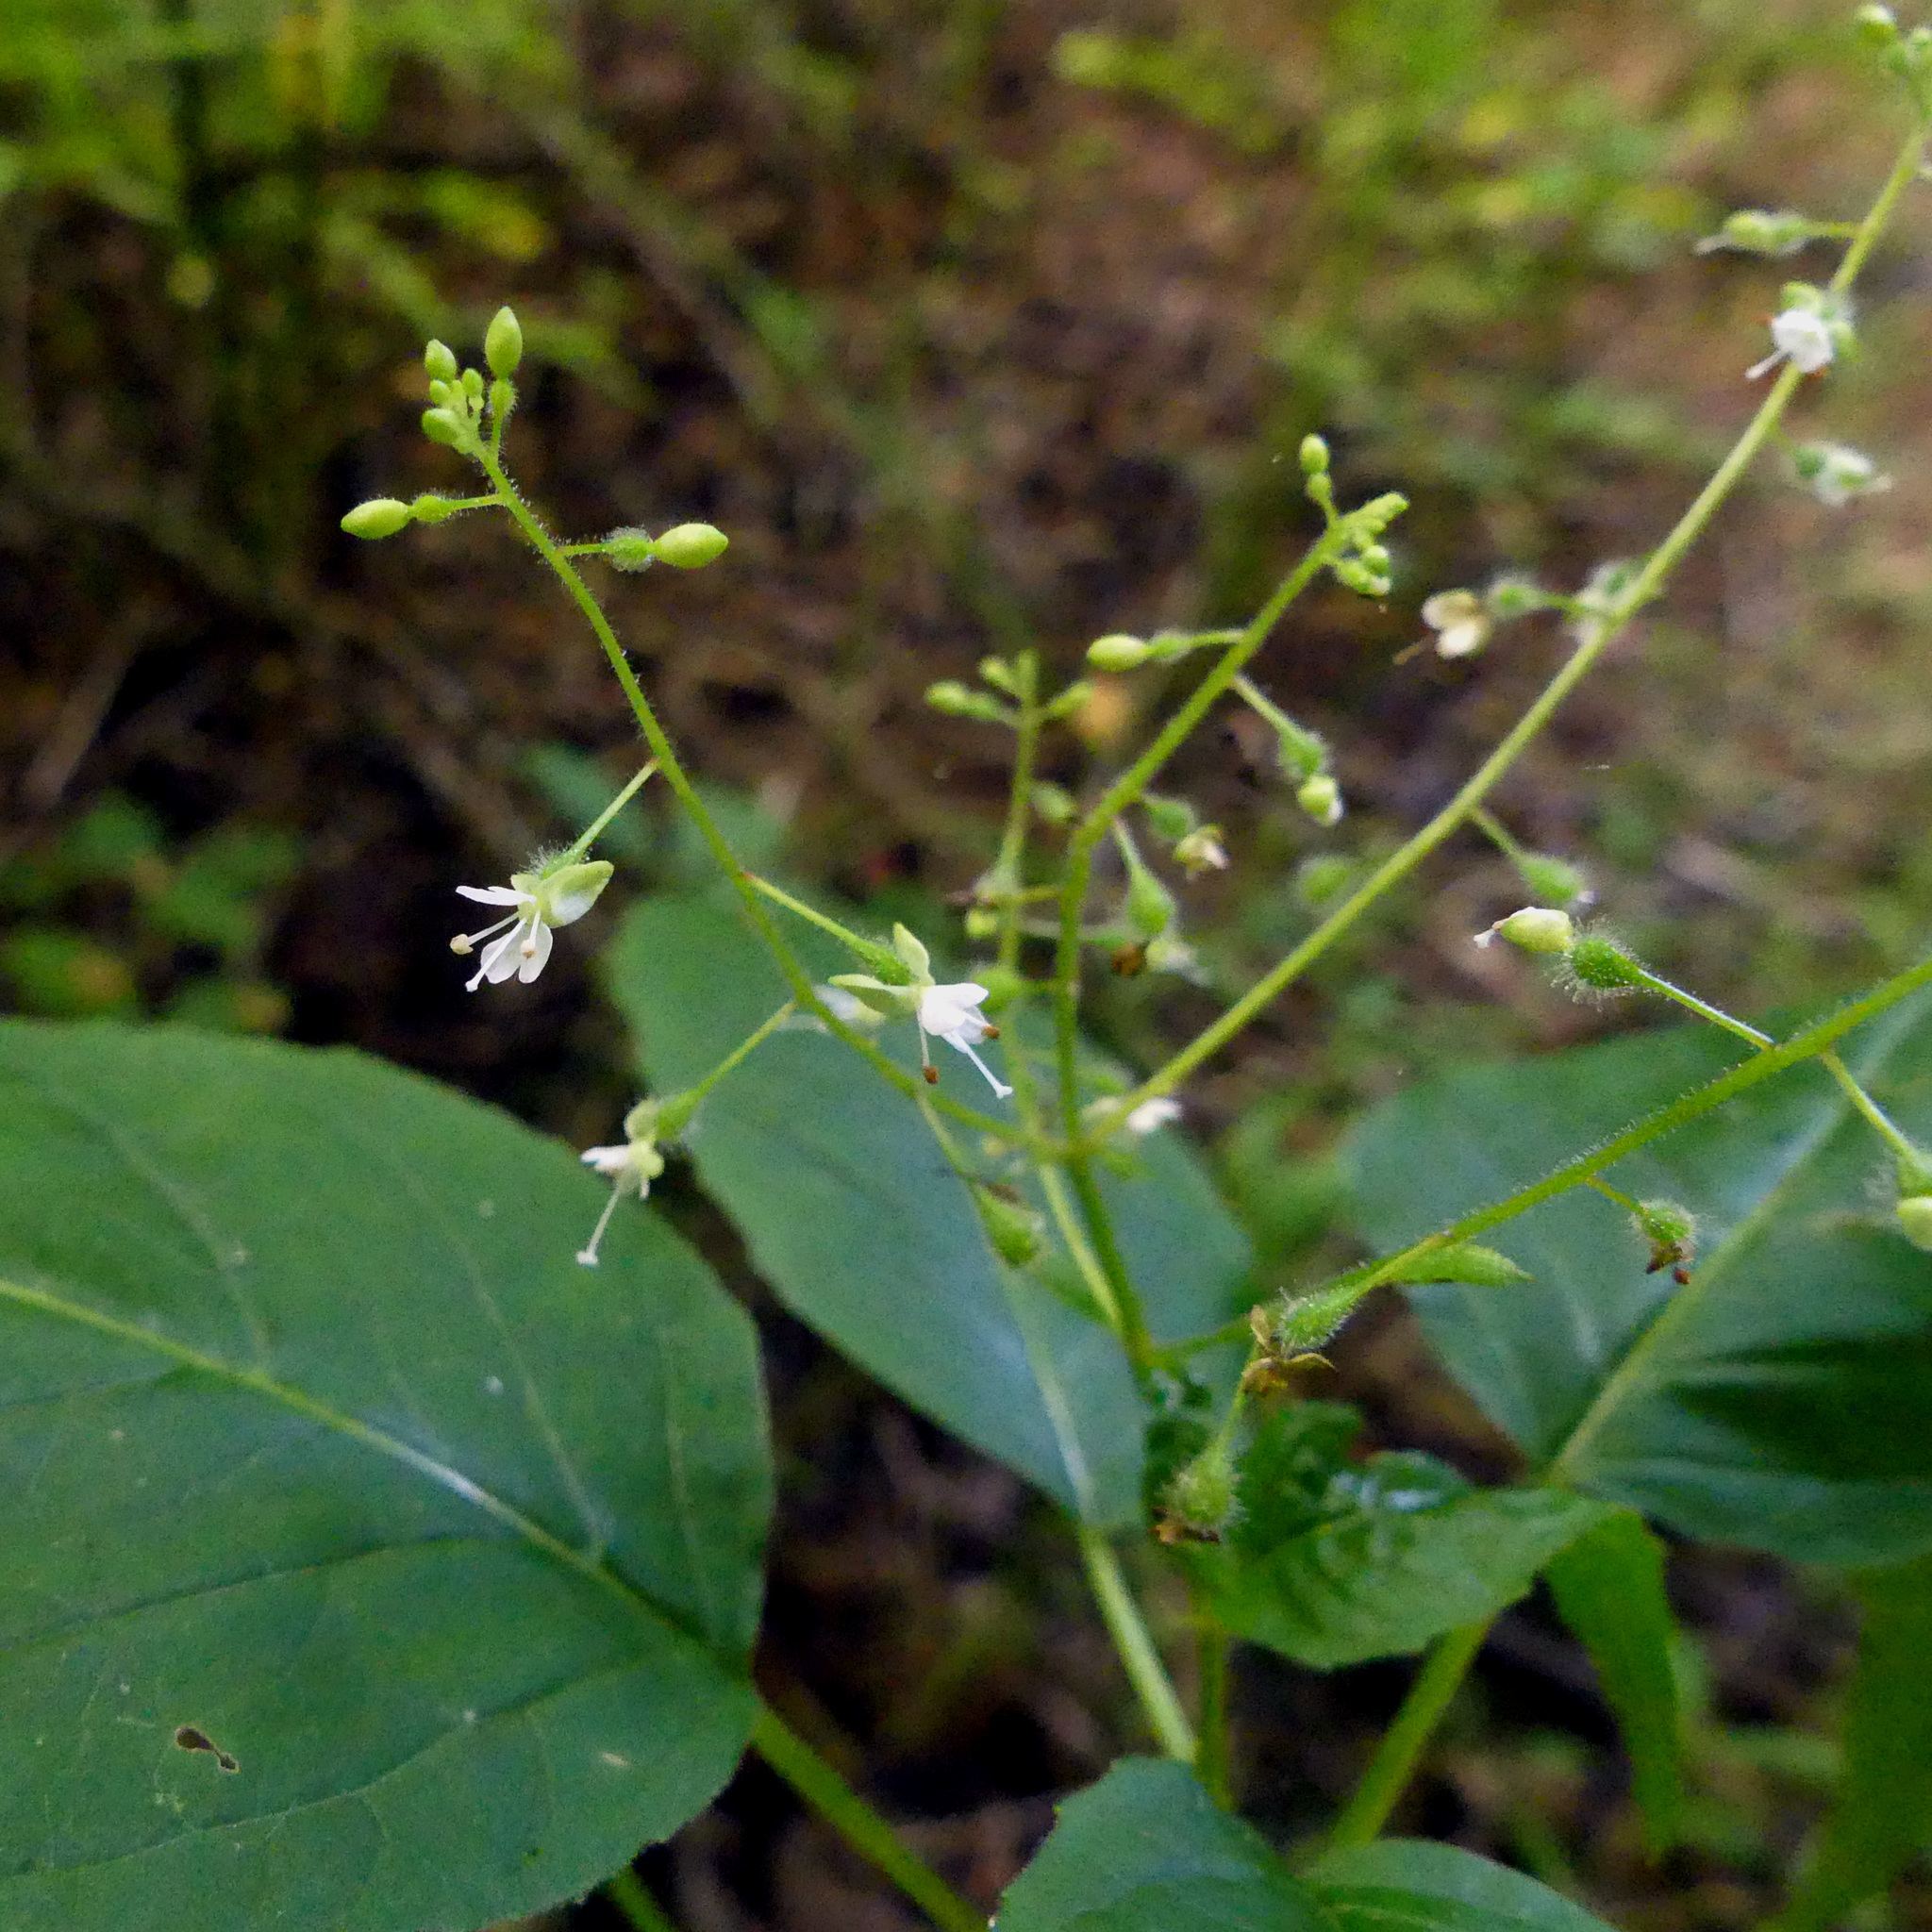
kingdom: Plantae
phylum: Tracheophyta
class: Magnoliopsida
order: Myrtales
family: Onagraceae
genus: Circaea
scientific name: Circaea canadensis
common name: Broad-leaved enchanter's nightshade
